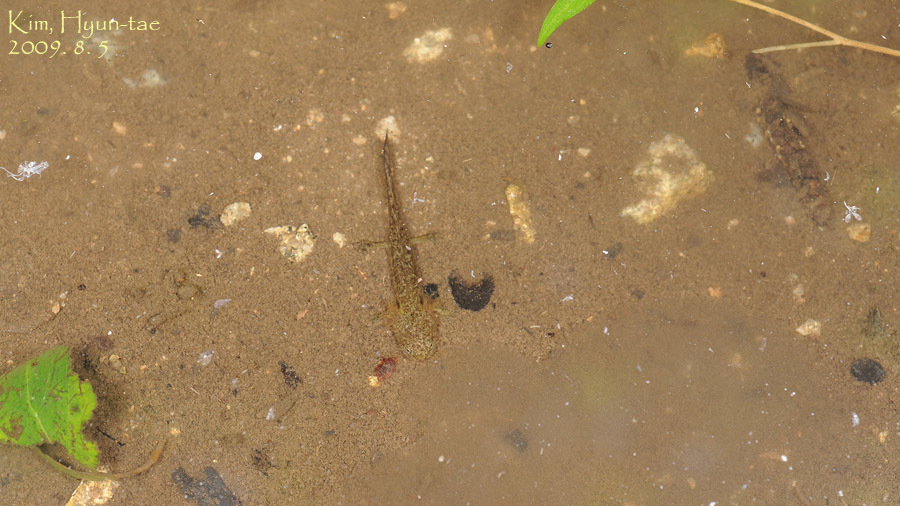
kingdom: Animalia
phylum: Chordata
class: Amphibia
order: Caudata
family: Hynobiidae
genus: Hynobius
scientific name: Hynobius leechii
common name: Gensan salamander
